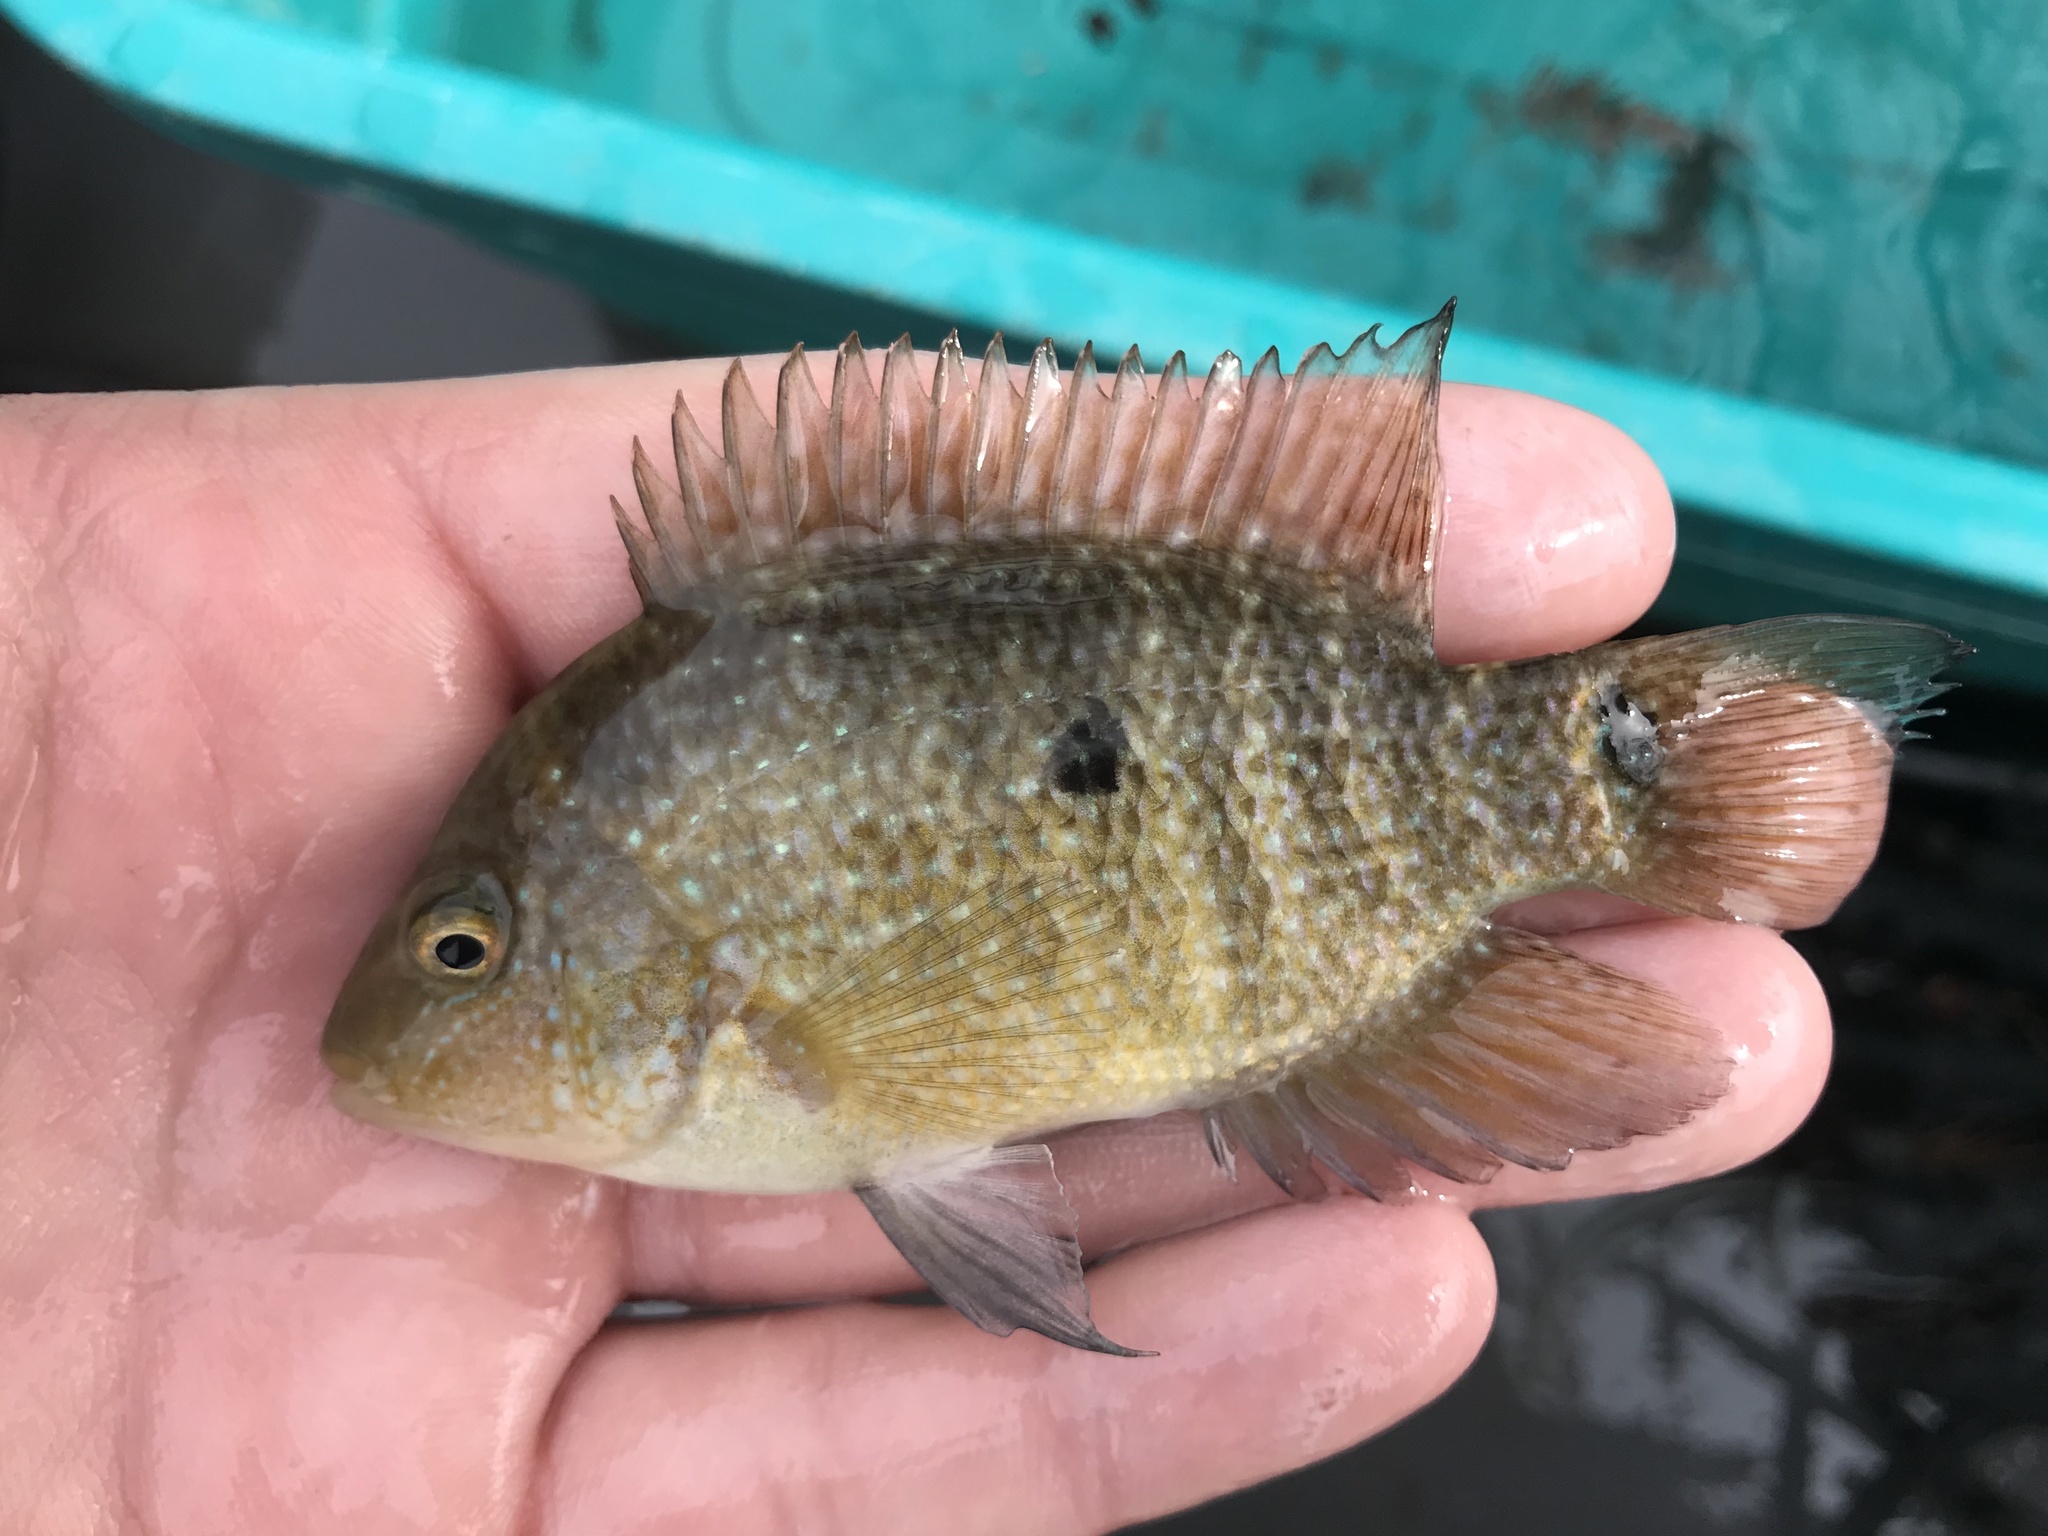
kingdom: Animalia
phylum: Chordata
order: Perciformes
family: Cichlidae
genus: Herichthys
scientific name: Herichthys cyanoguttatus
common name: Rio grande cichlid
